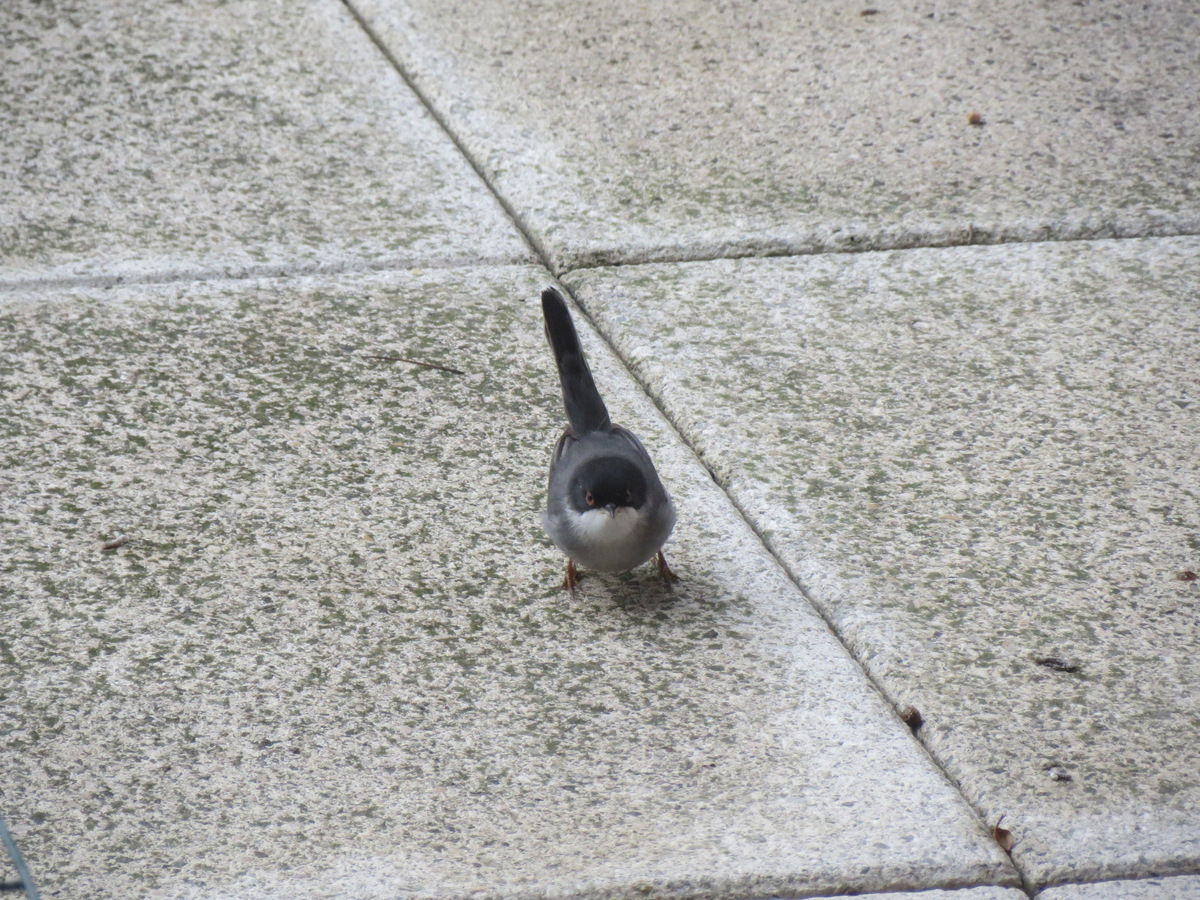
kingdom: Animalia
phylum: Chordata
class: Aves
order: Passeriformes
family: Sylviidae
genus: Curruca
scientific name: Curruca melanocephala
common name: Sardinian warbler
